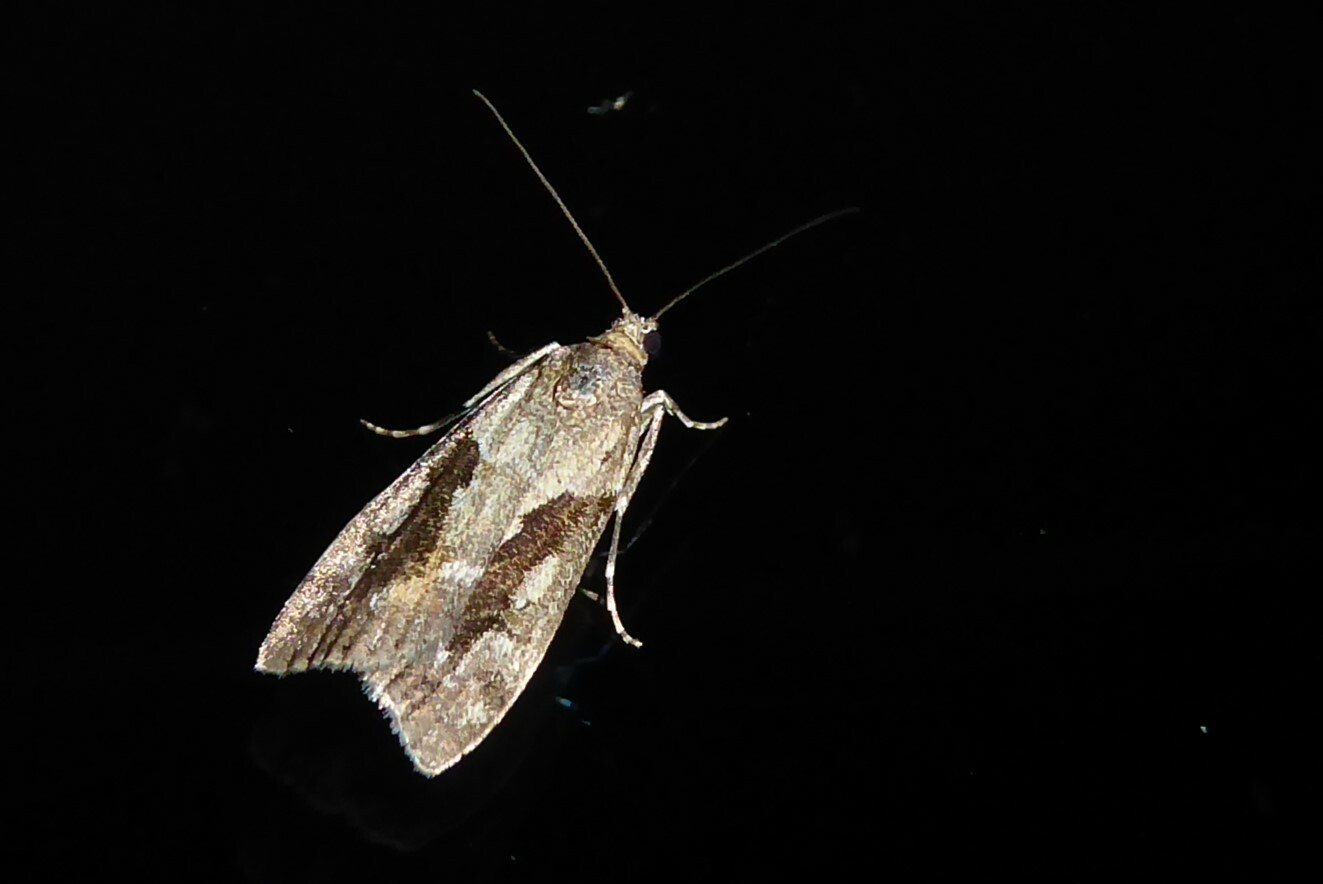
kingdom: Animalia
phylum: Arthropoda
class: Insecta
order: Lepidoptera
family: Crambidae
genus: Eudonia
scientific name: Eudonia submarginalis
